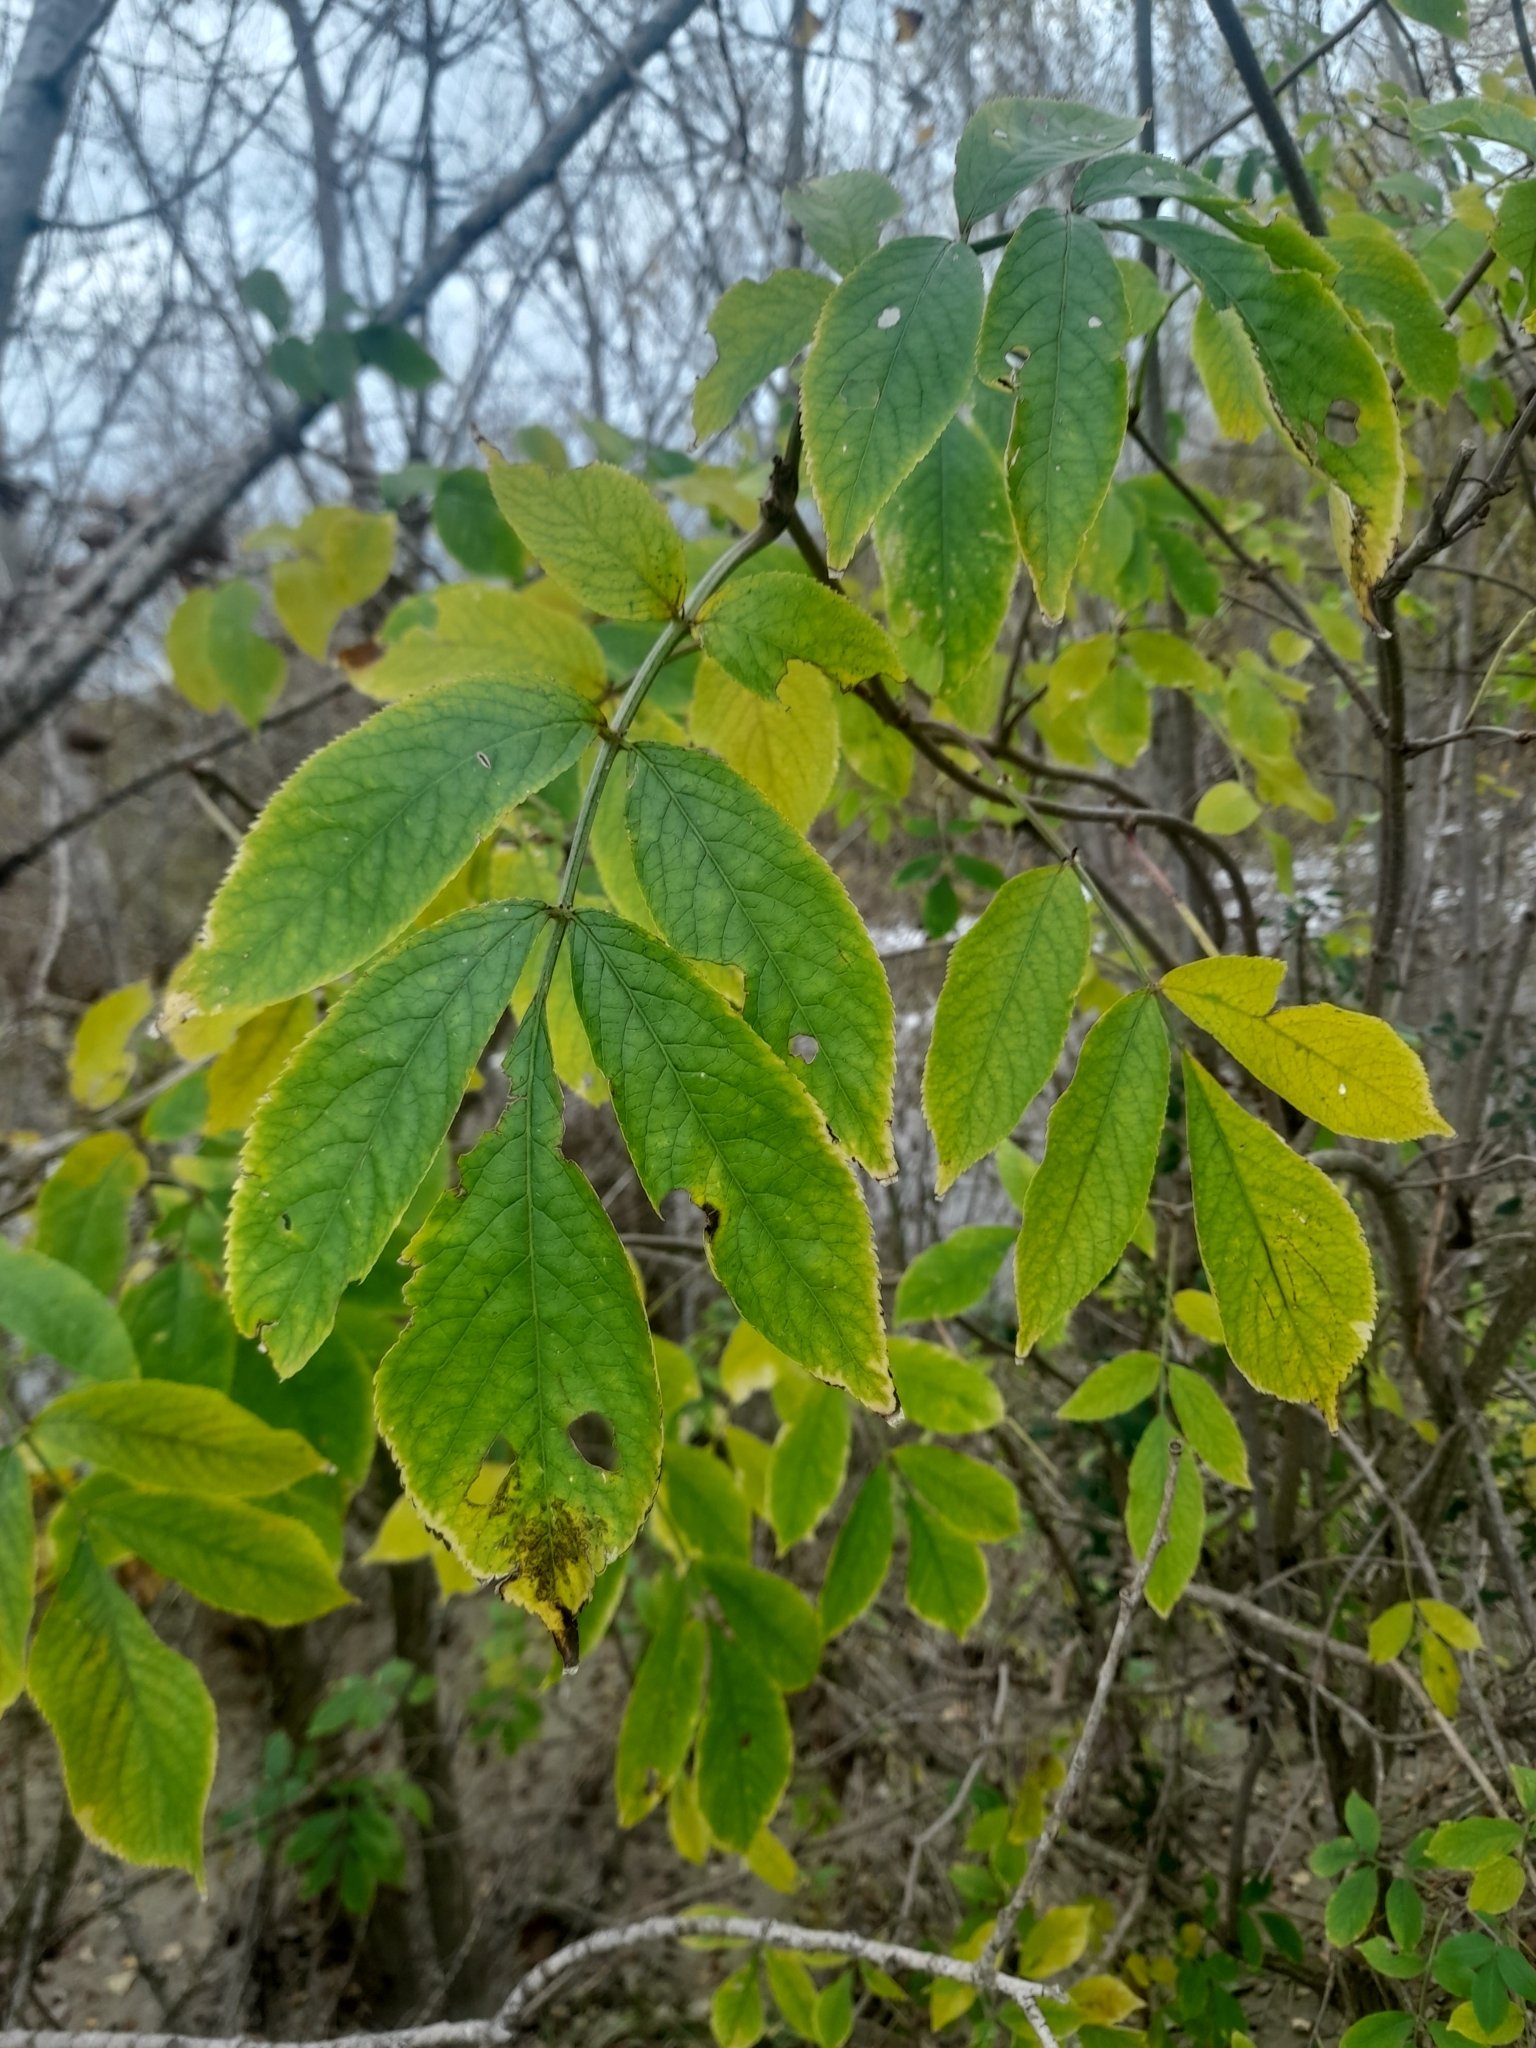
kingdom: Plantae
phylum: Tracheophyta
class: Magnoliopsida
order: Dipsacales
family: Viburnaceae
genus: Sambucus
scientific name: Sambucus nigra
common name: Elder
